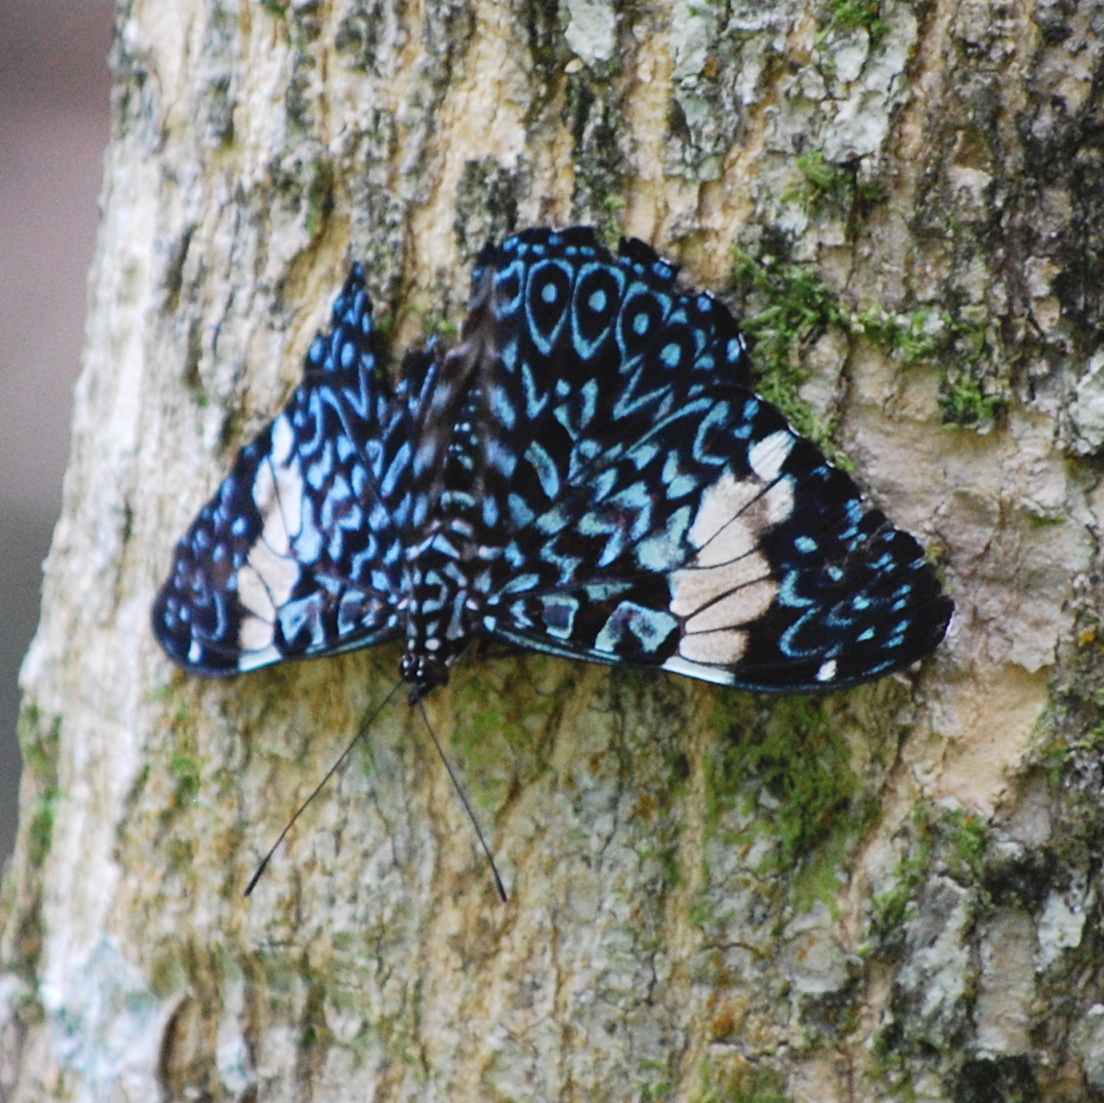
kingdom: Animalia
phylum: Arthropoda
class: Insecta
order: Lepidoptera
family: Nymphalidae
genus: Hamadryas
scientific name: Hamadryas amphinome
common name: Red cracker
